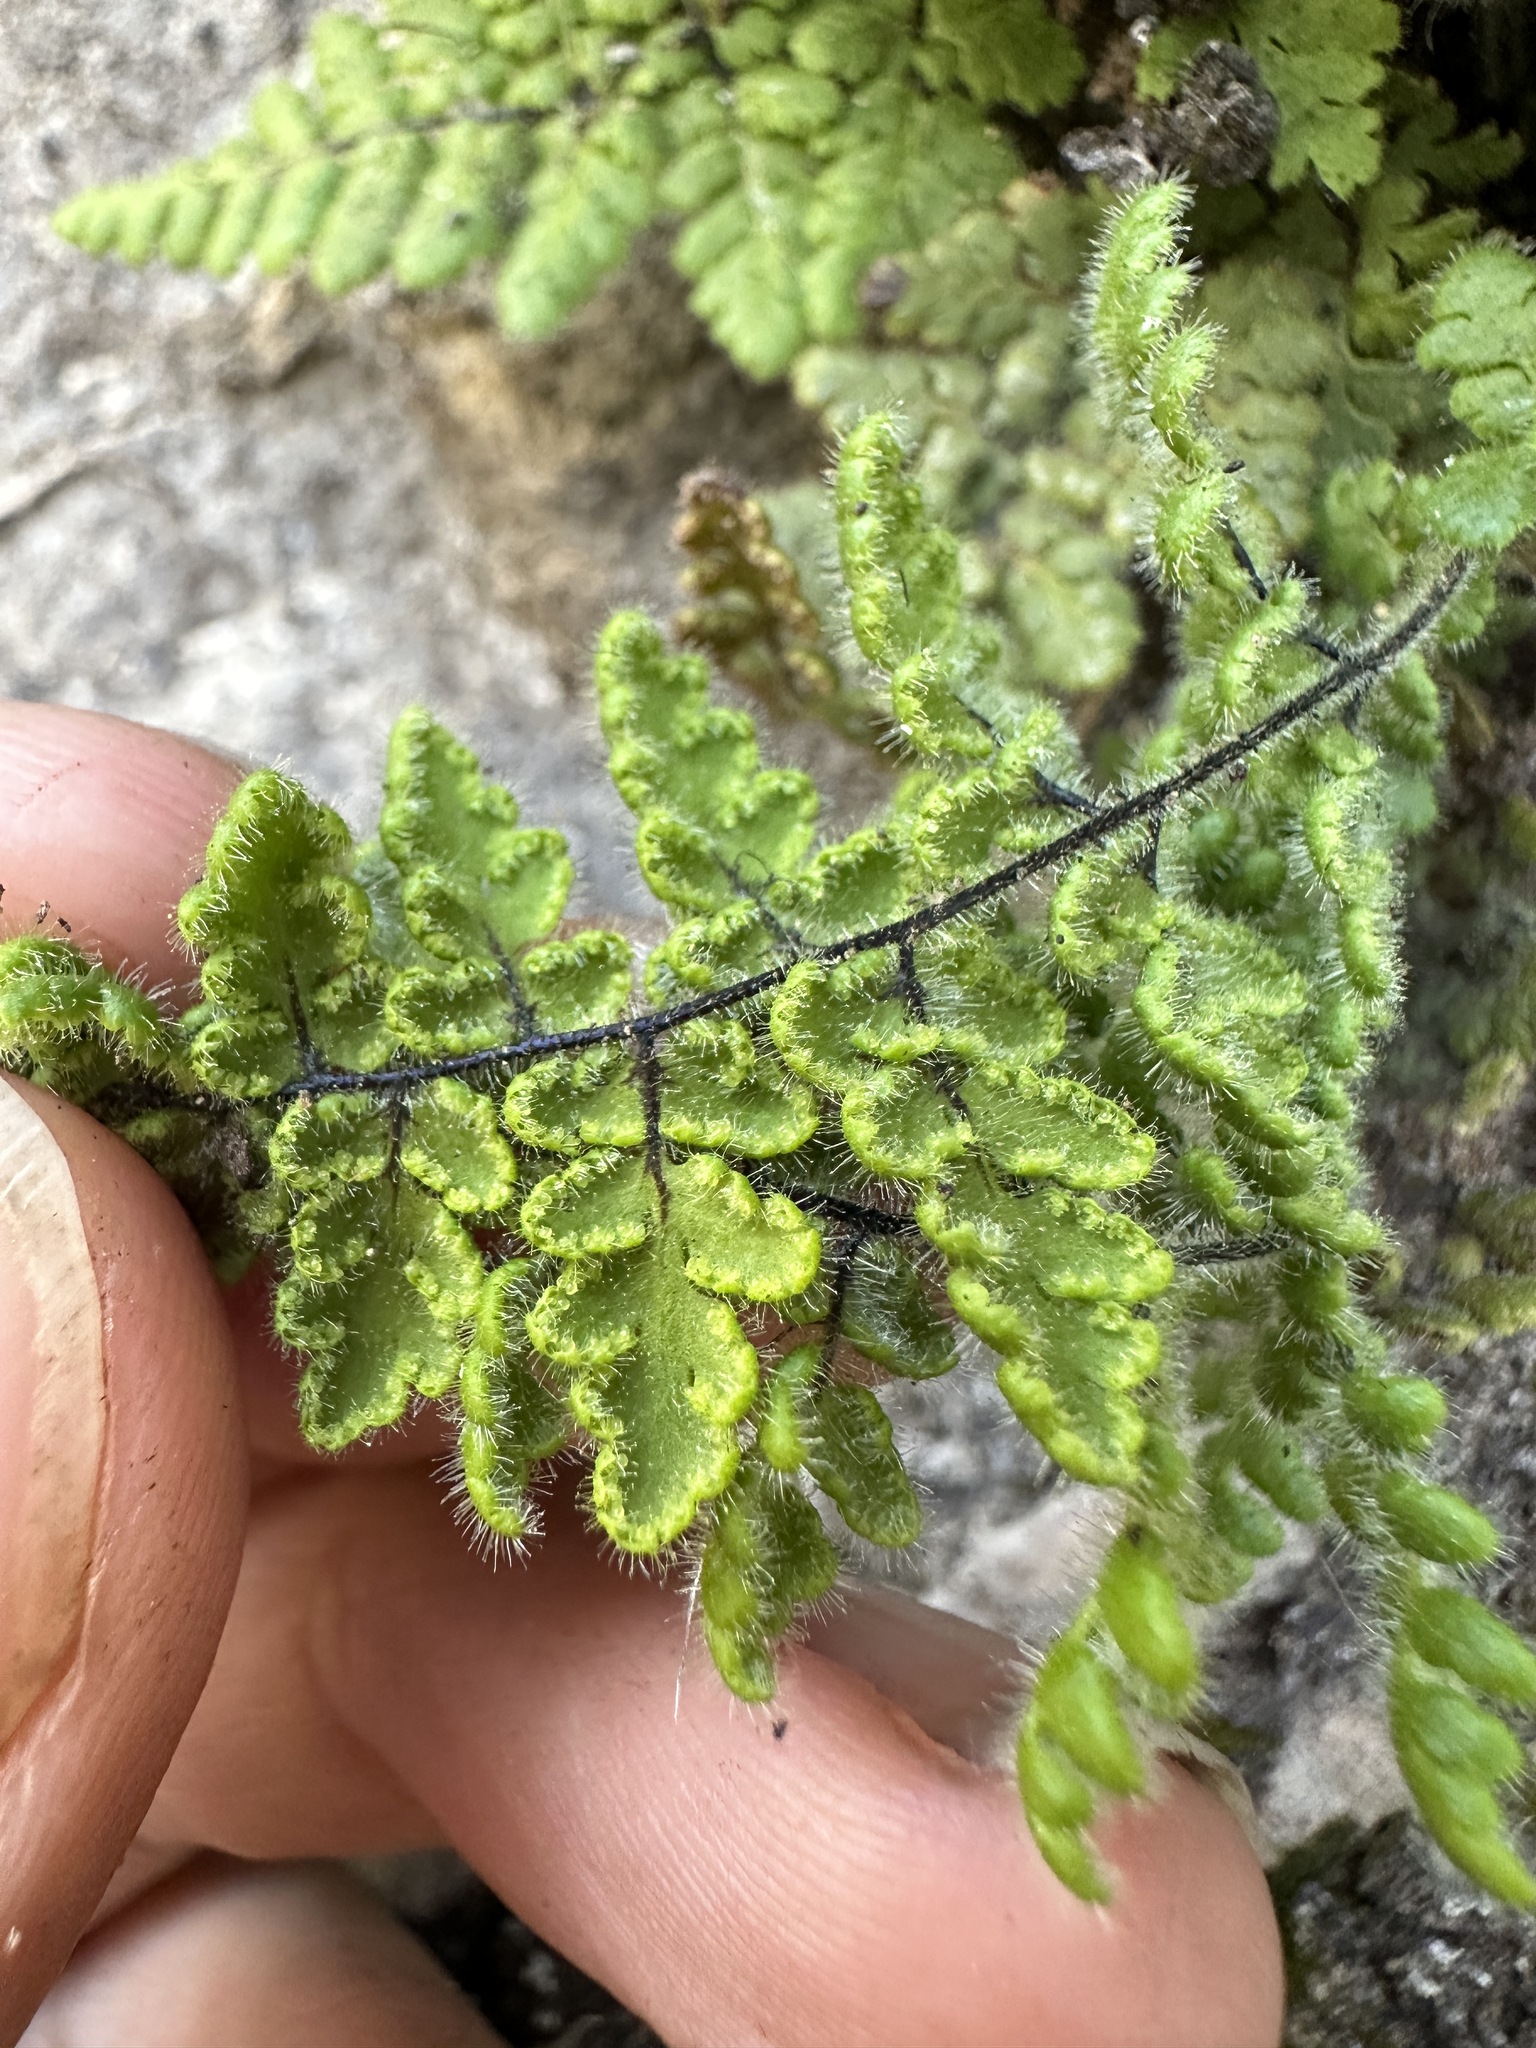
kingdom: Plantae
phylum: Tracheophyta
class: Polypodiopsida
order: Polypodiales
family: Pteridaceae
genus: Myriopteris
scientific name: Myriopteris cooperae
